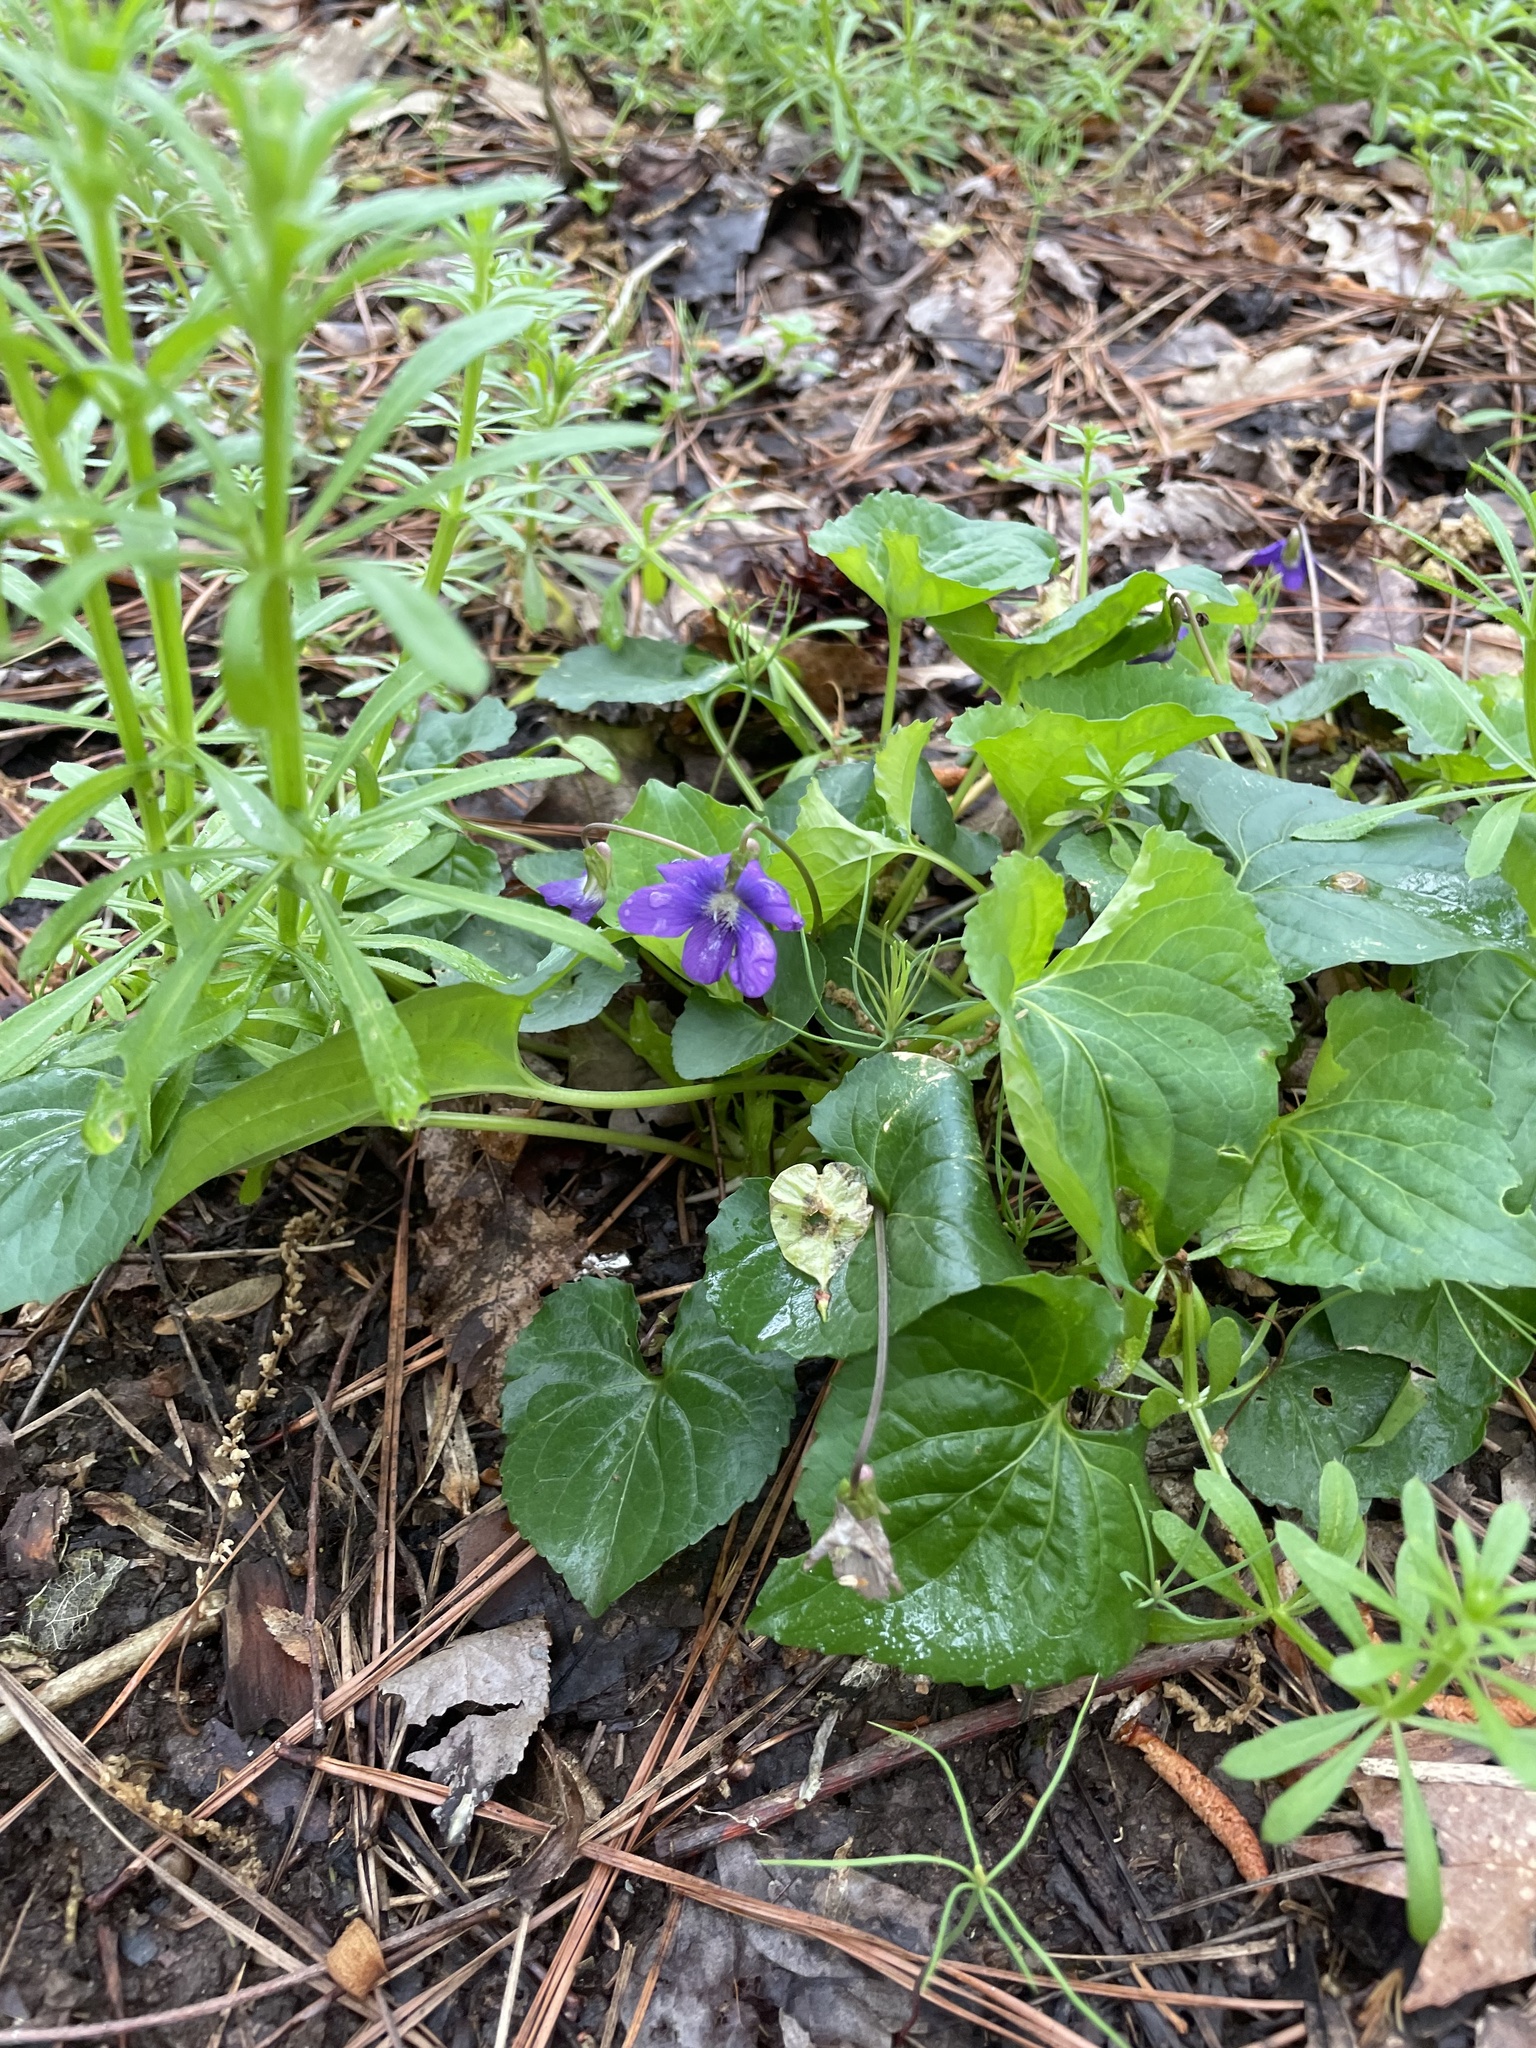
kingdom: Plantae
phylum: Tracheophyta
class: Magnoliopsida
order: Malpighiales
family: Violaceae
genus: Viola
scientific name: Viola sororia
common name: Dooryard violet
